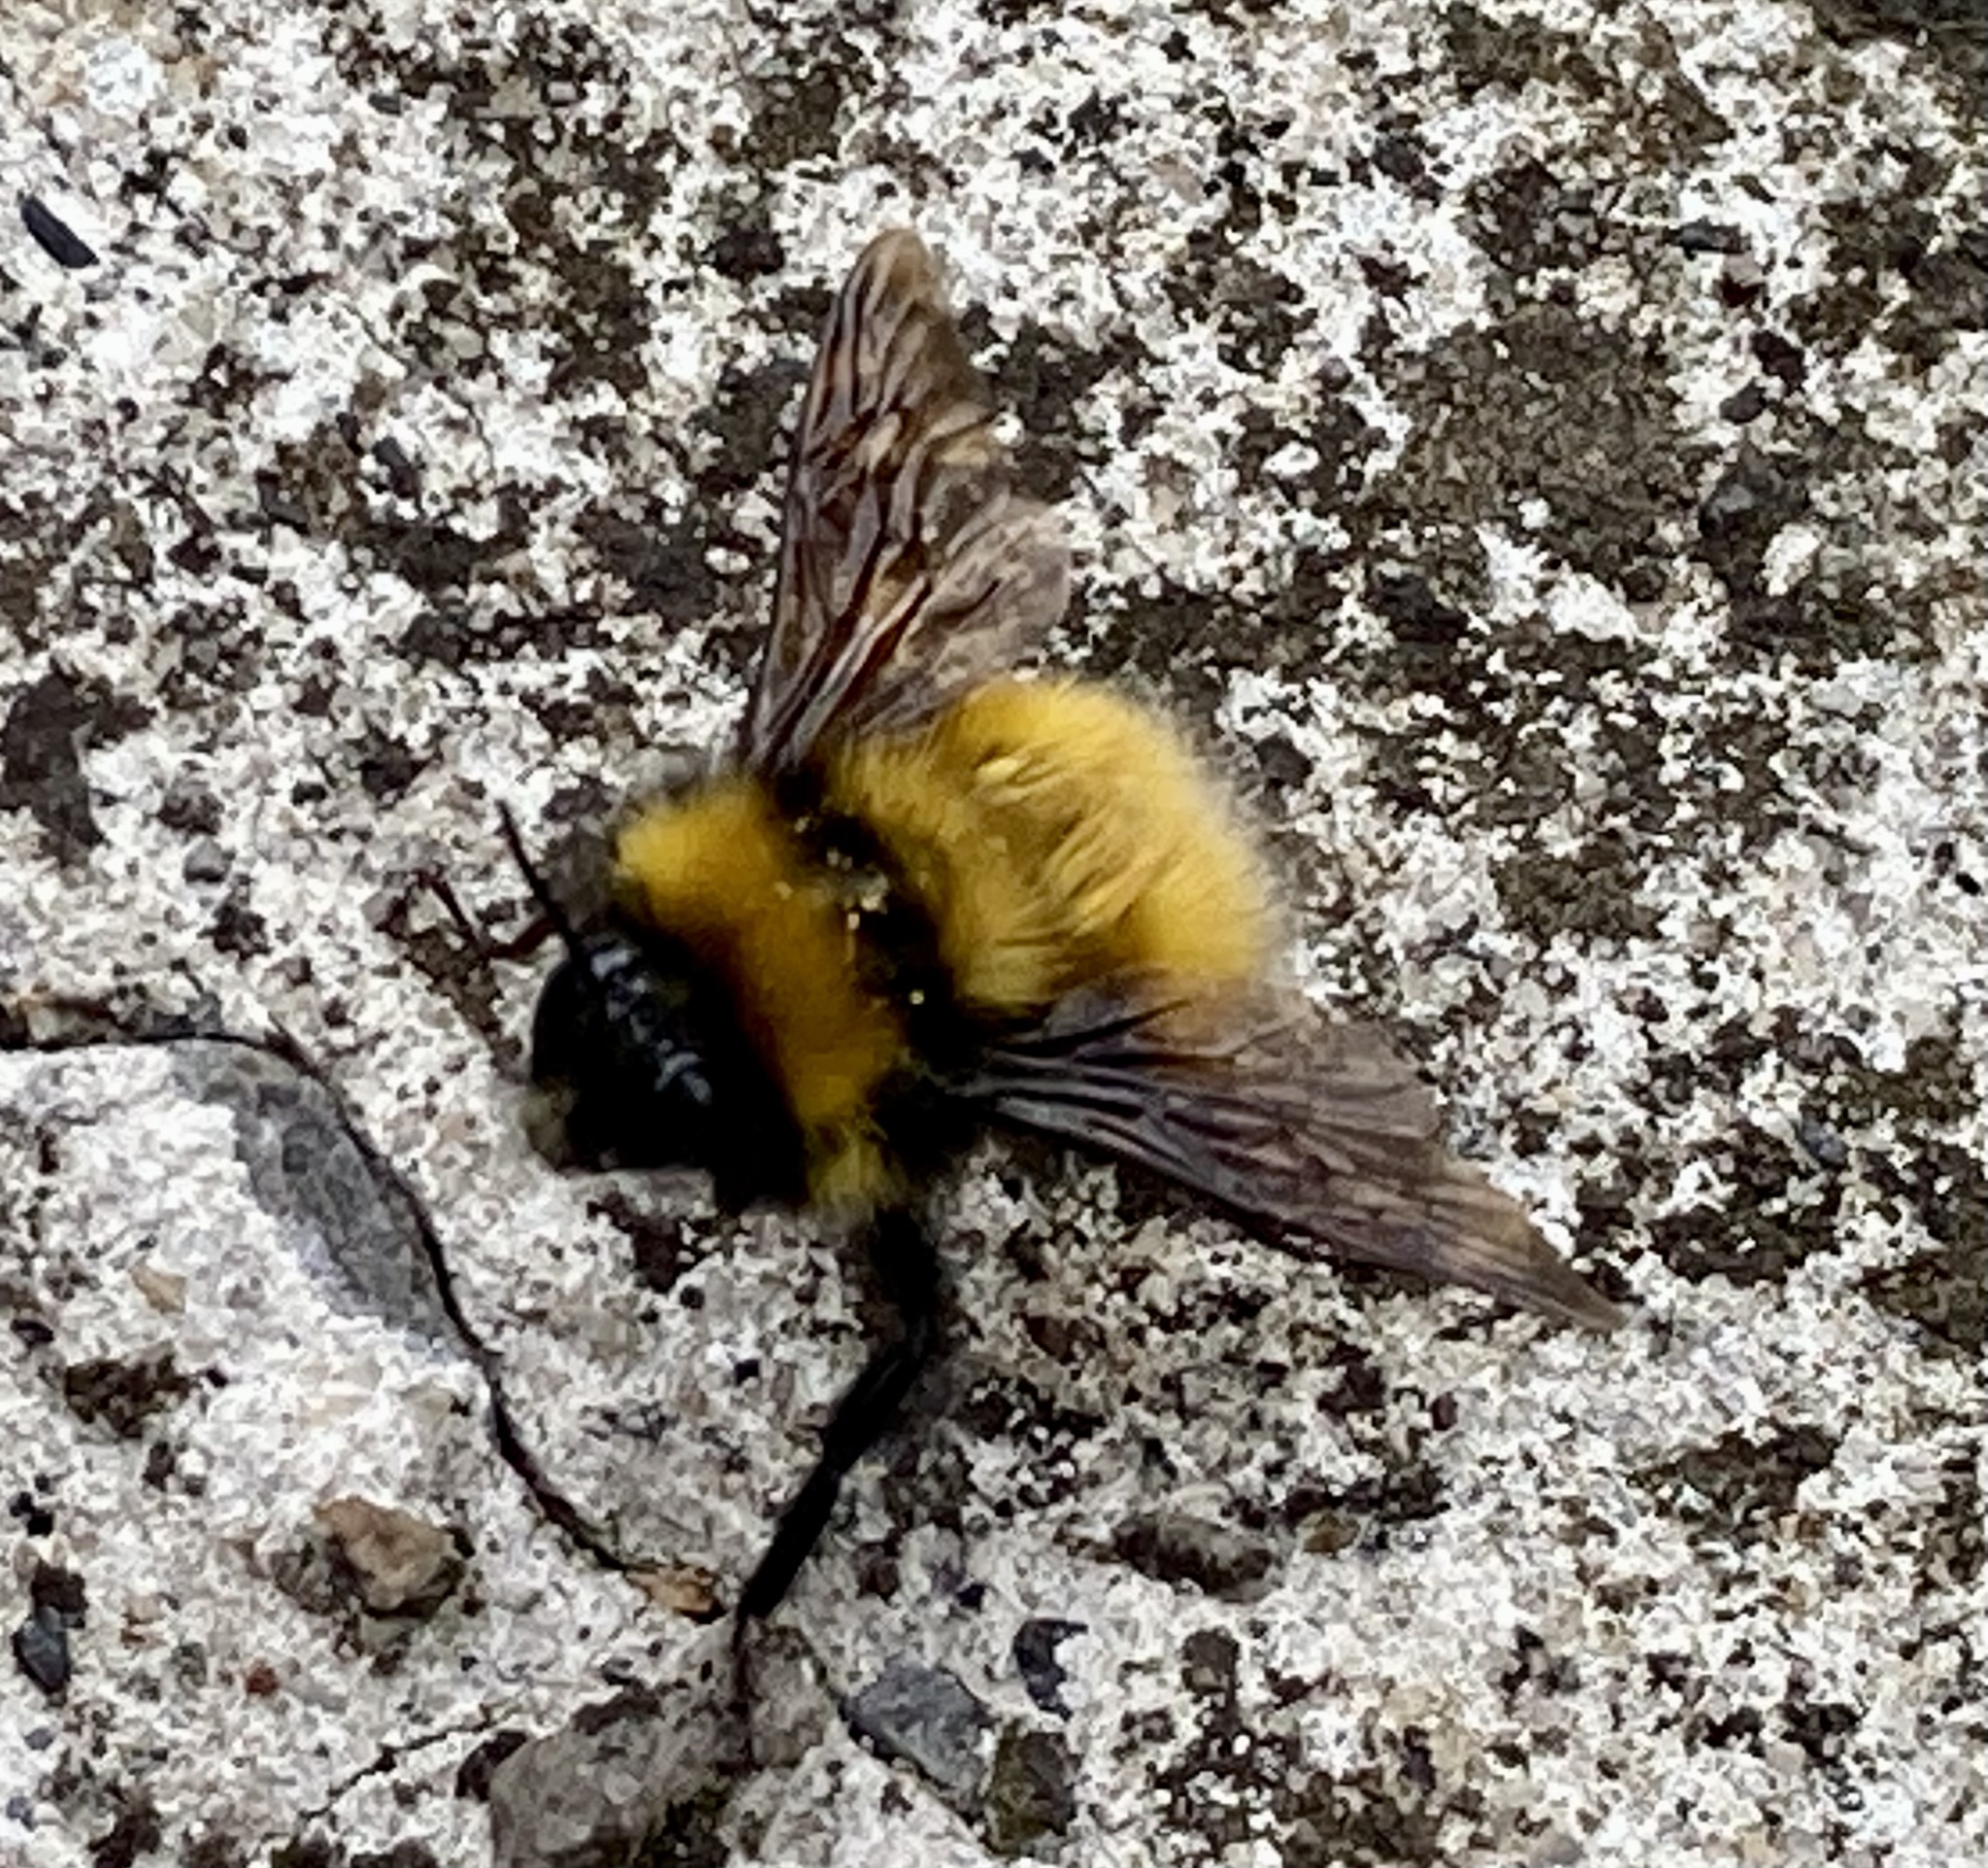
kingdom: Animalia
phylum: Arthropoda
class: Insecta
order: Hymenoptera
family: Apidae
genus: Bombus
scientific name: Bombus robustus
